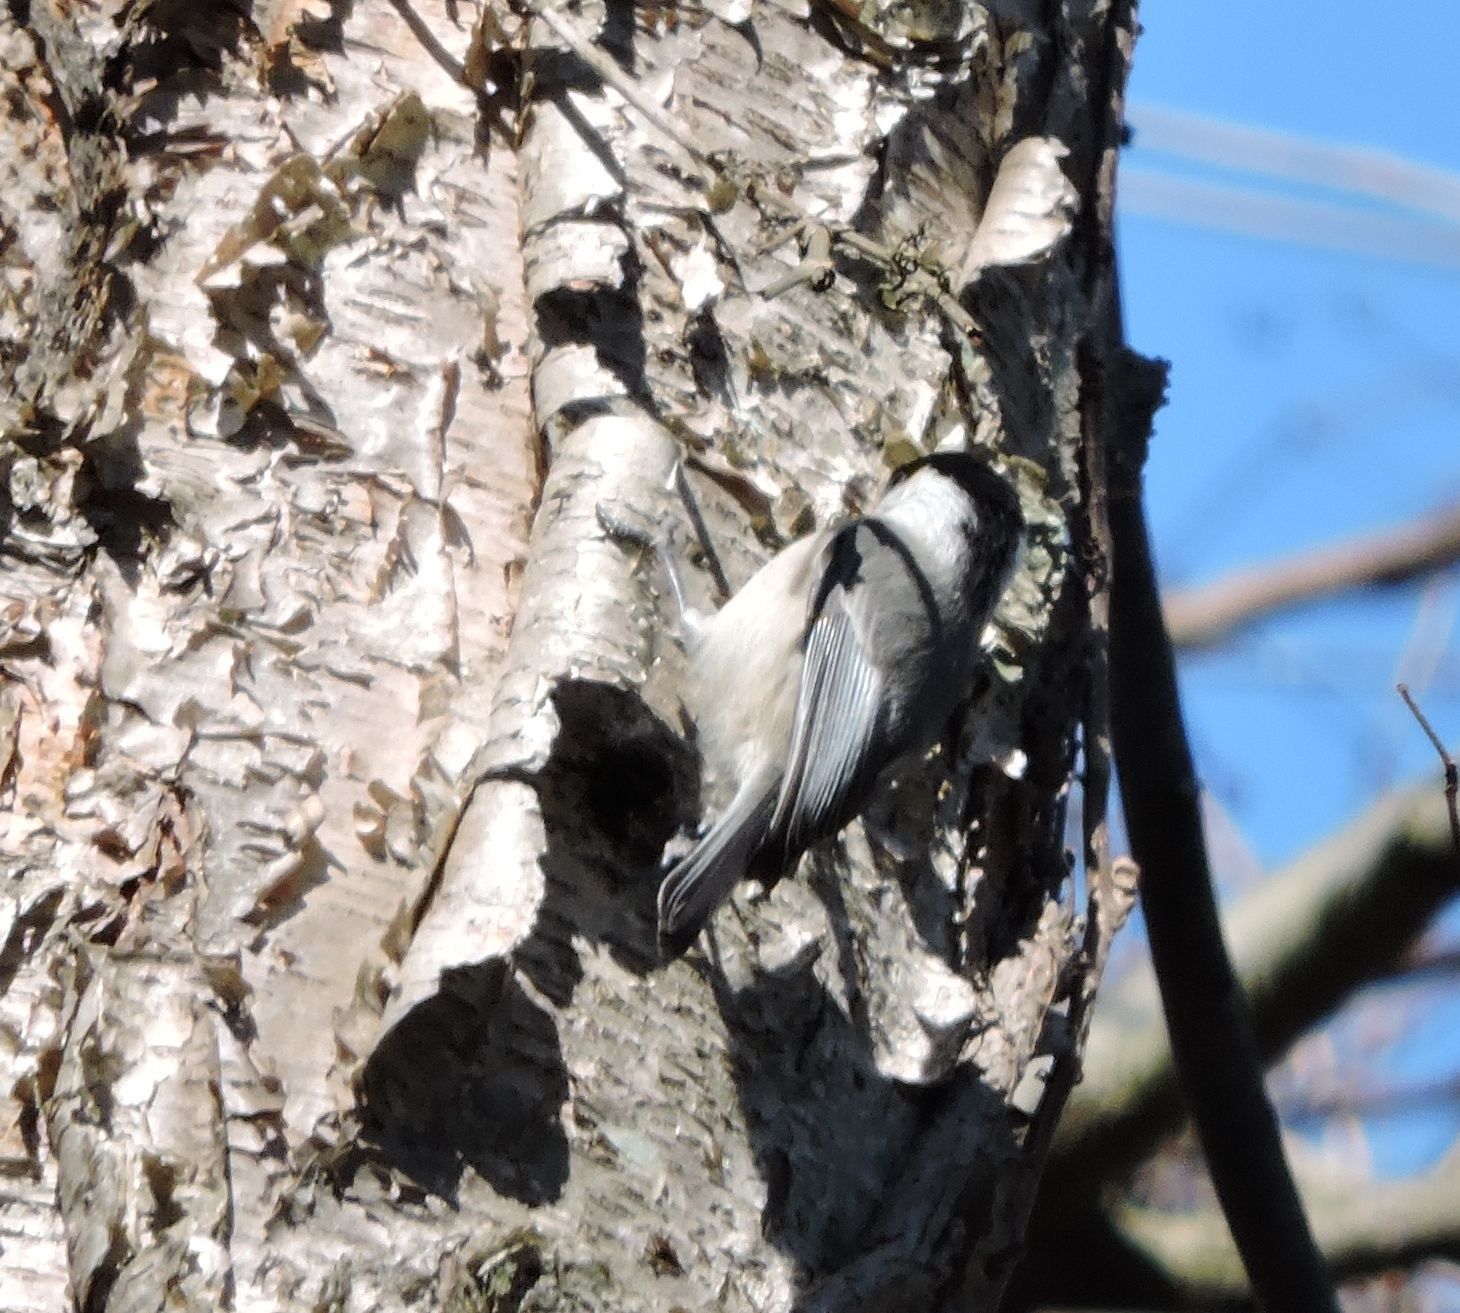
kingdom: Animalia
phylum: Chordata
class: Aves
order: Passeriformes
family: Paridae
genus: Poecile
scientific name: Poecile carolinensis
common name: Carolina chickadee
